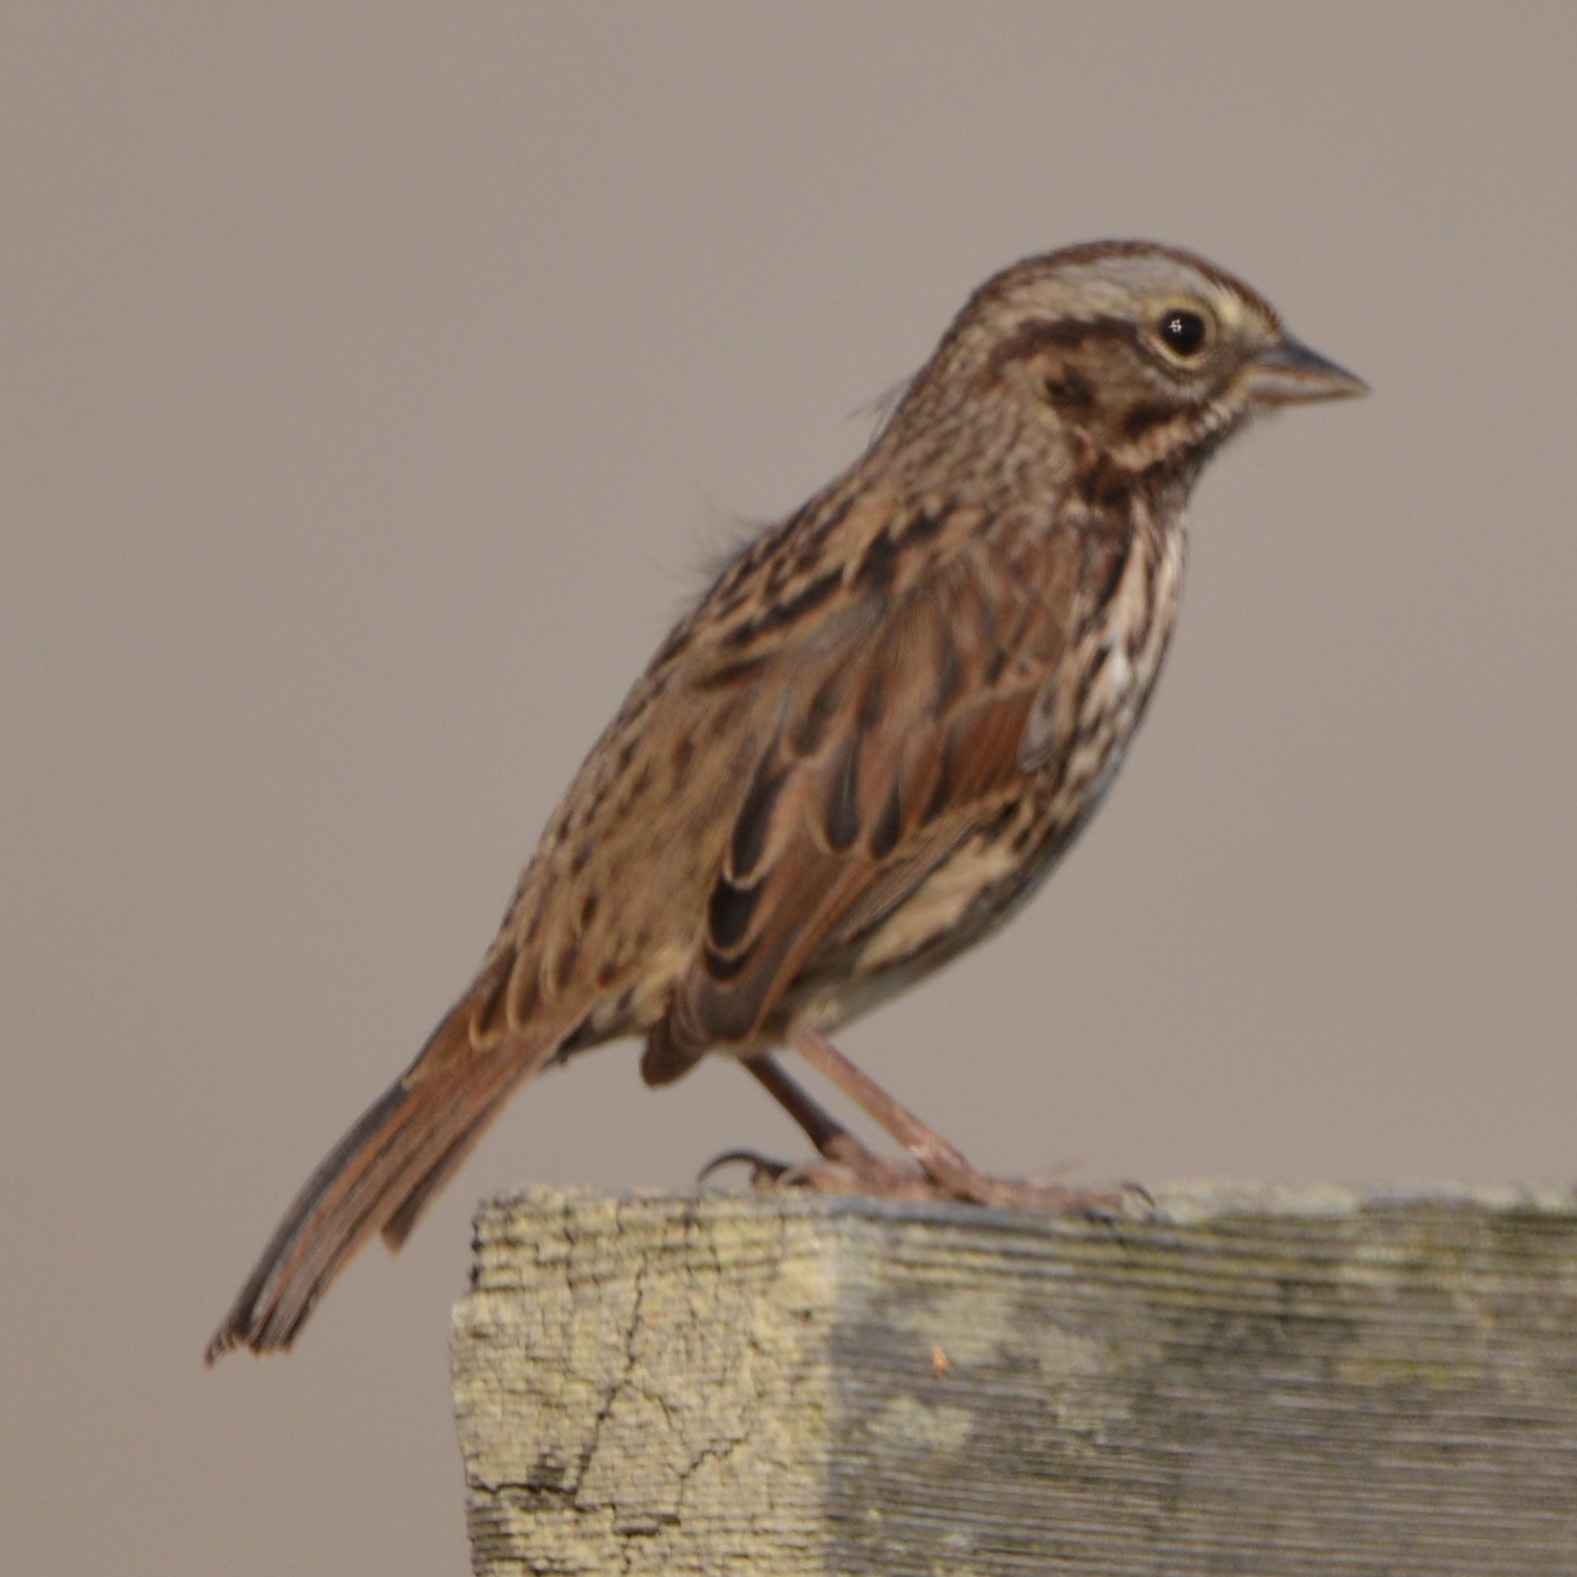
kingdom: Animalia
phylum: Chordata
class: Aves
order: Passeriformes
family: Passerellidae
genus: Melospiza
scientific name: Melospiza melodia
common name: Song sparrow
